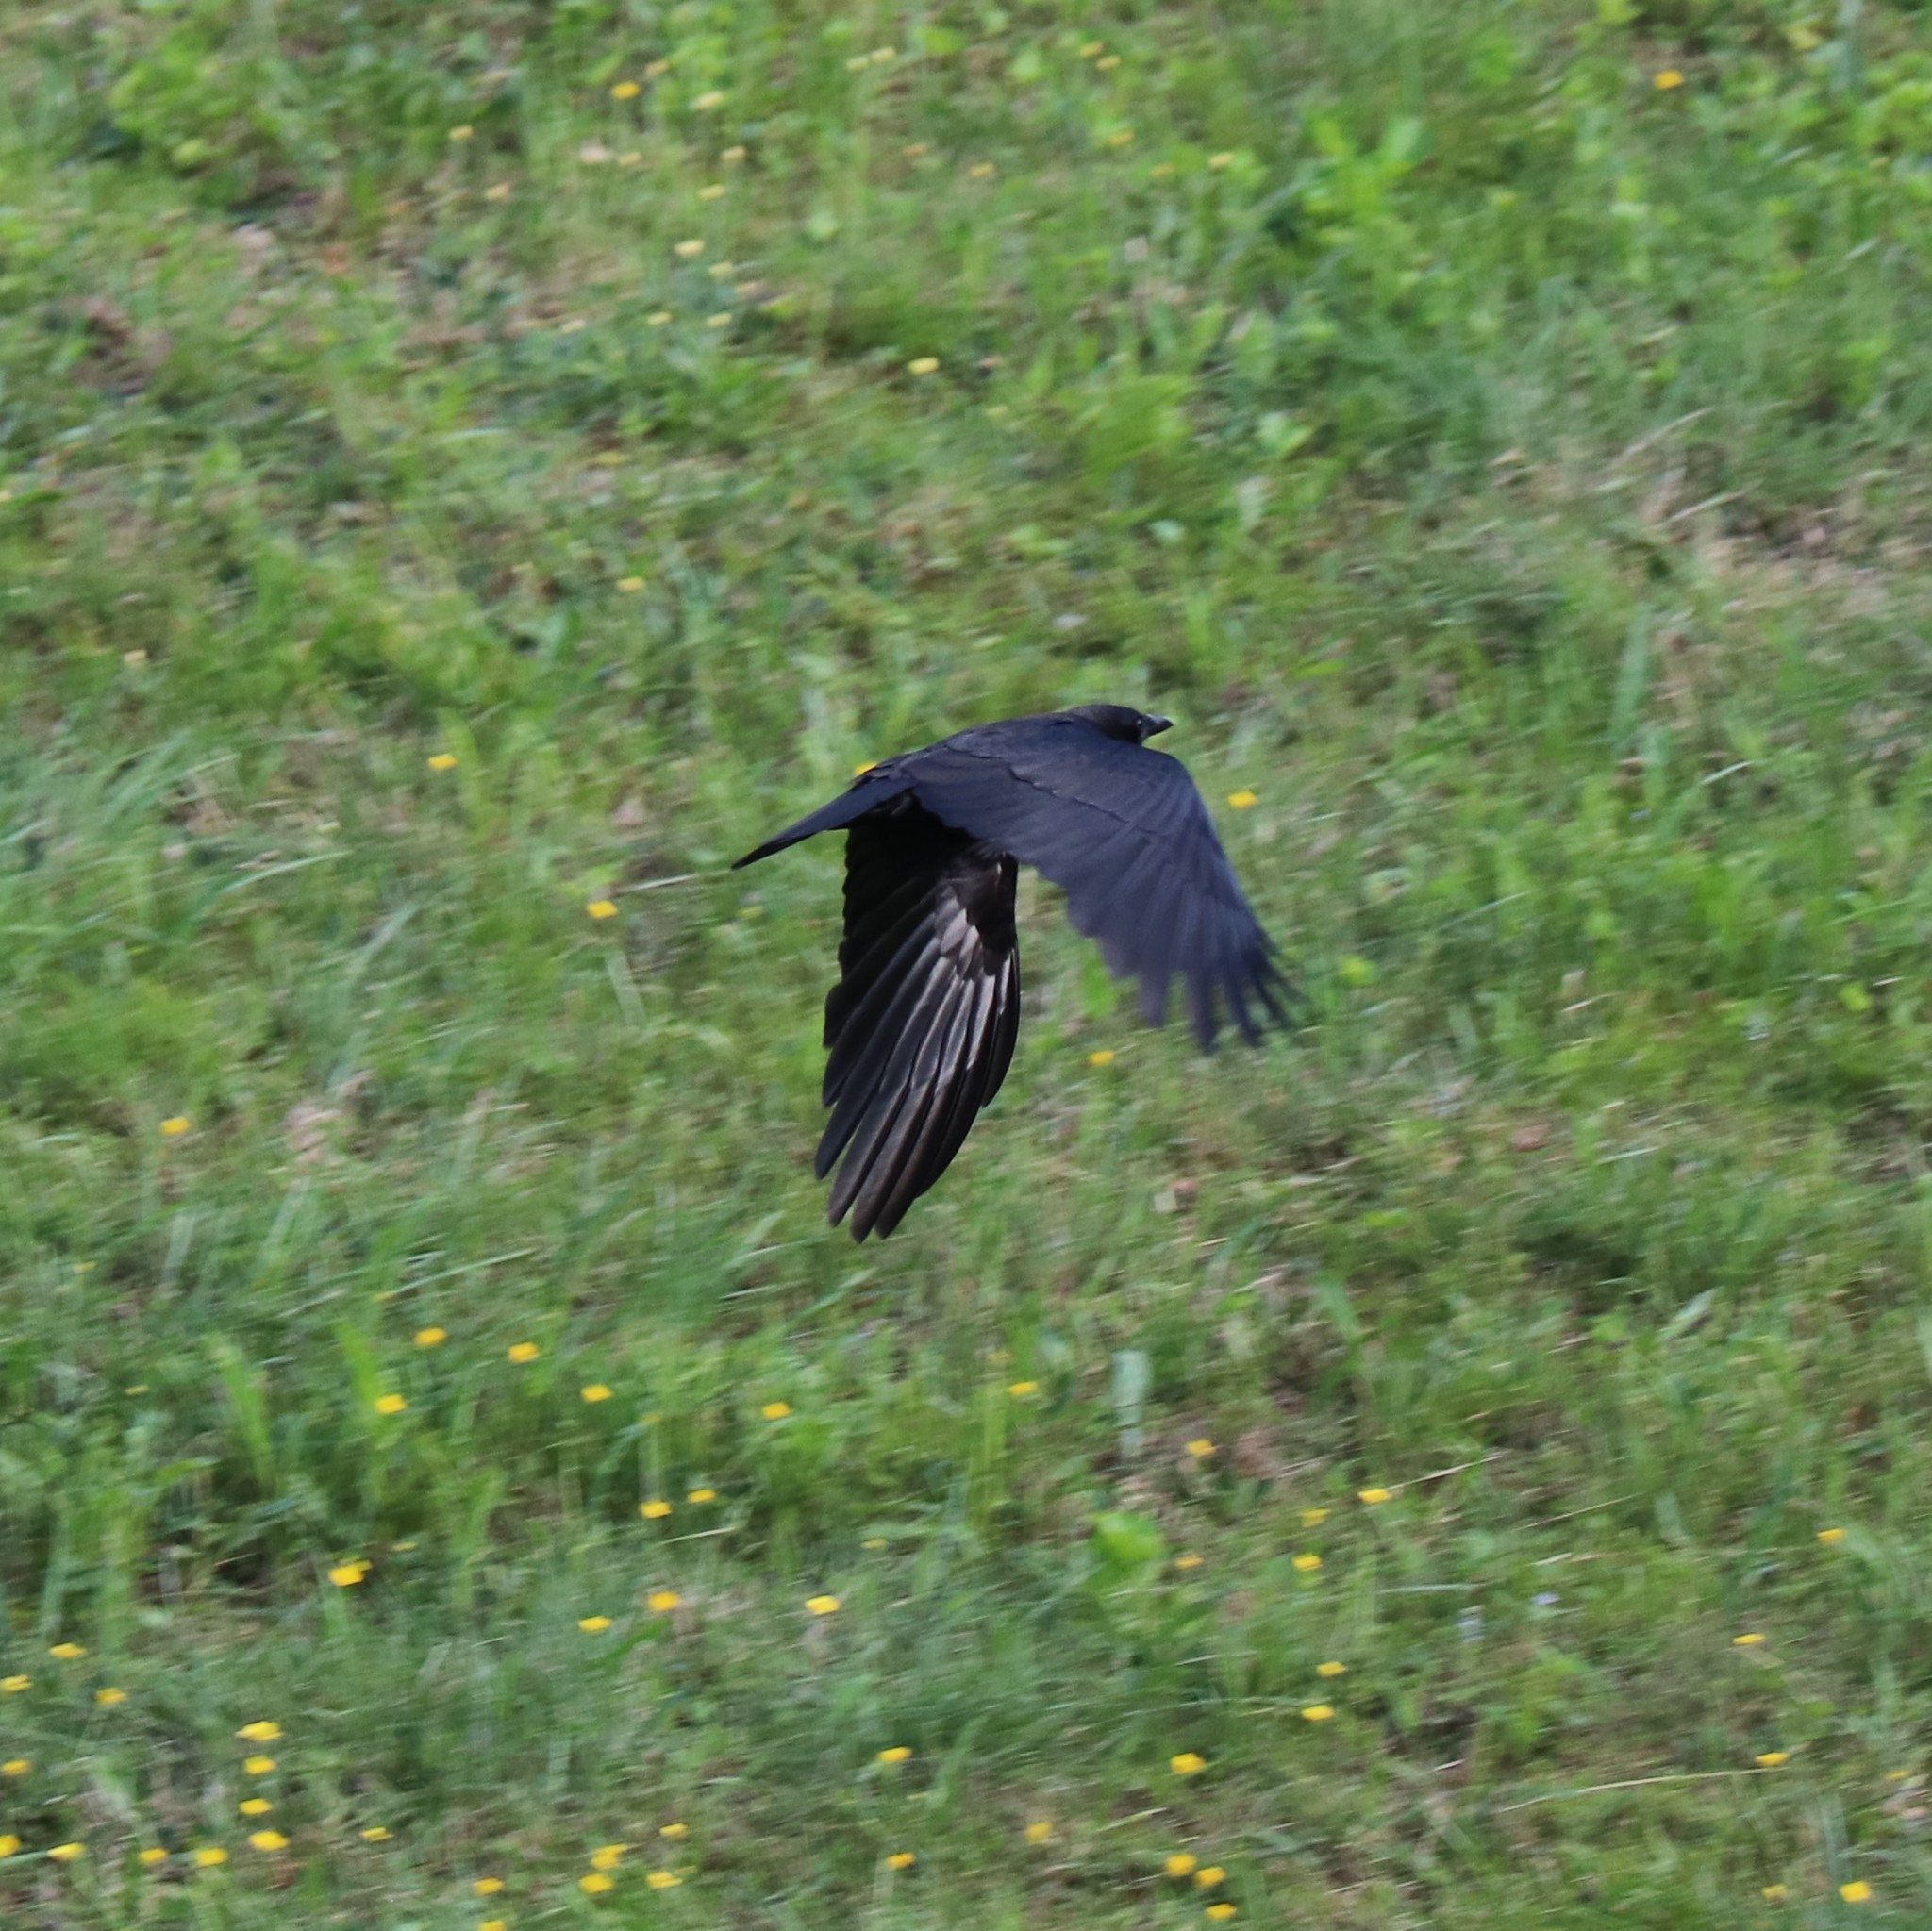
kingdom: Animalia
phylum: Chordata
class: Aves
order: Passeriformes
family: Corvidae
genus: Corvus
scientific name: Corvus brachyrhynchos
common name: American crow
